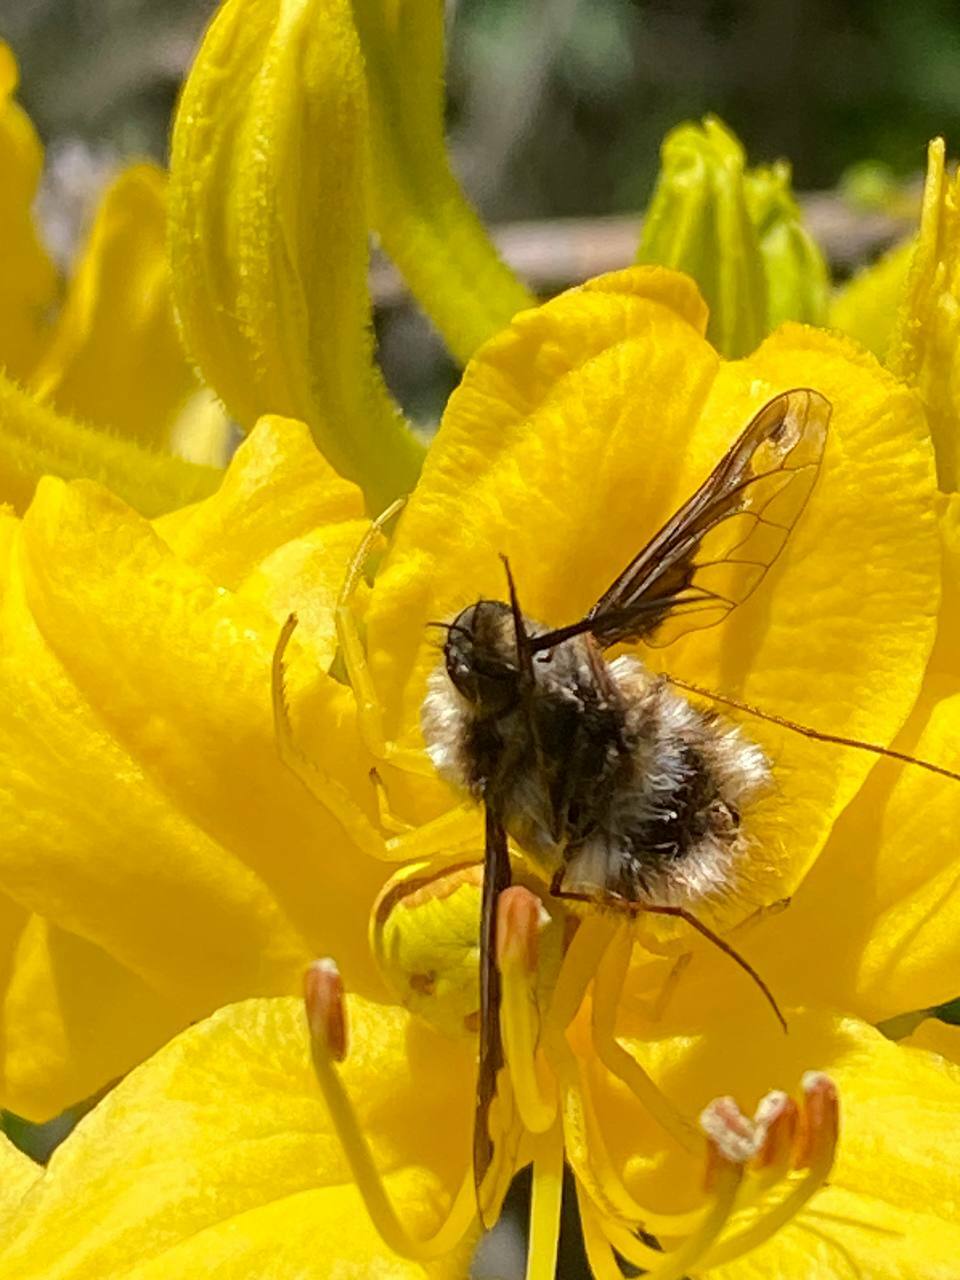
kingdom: Animalia
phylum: Arthropoda
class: Insecta
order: Diptera
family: Bombyliidae
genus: Bombylius
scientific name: Bombylius major
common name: Bee fly
